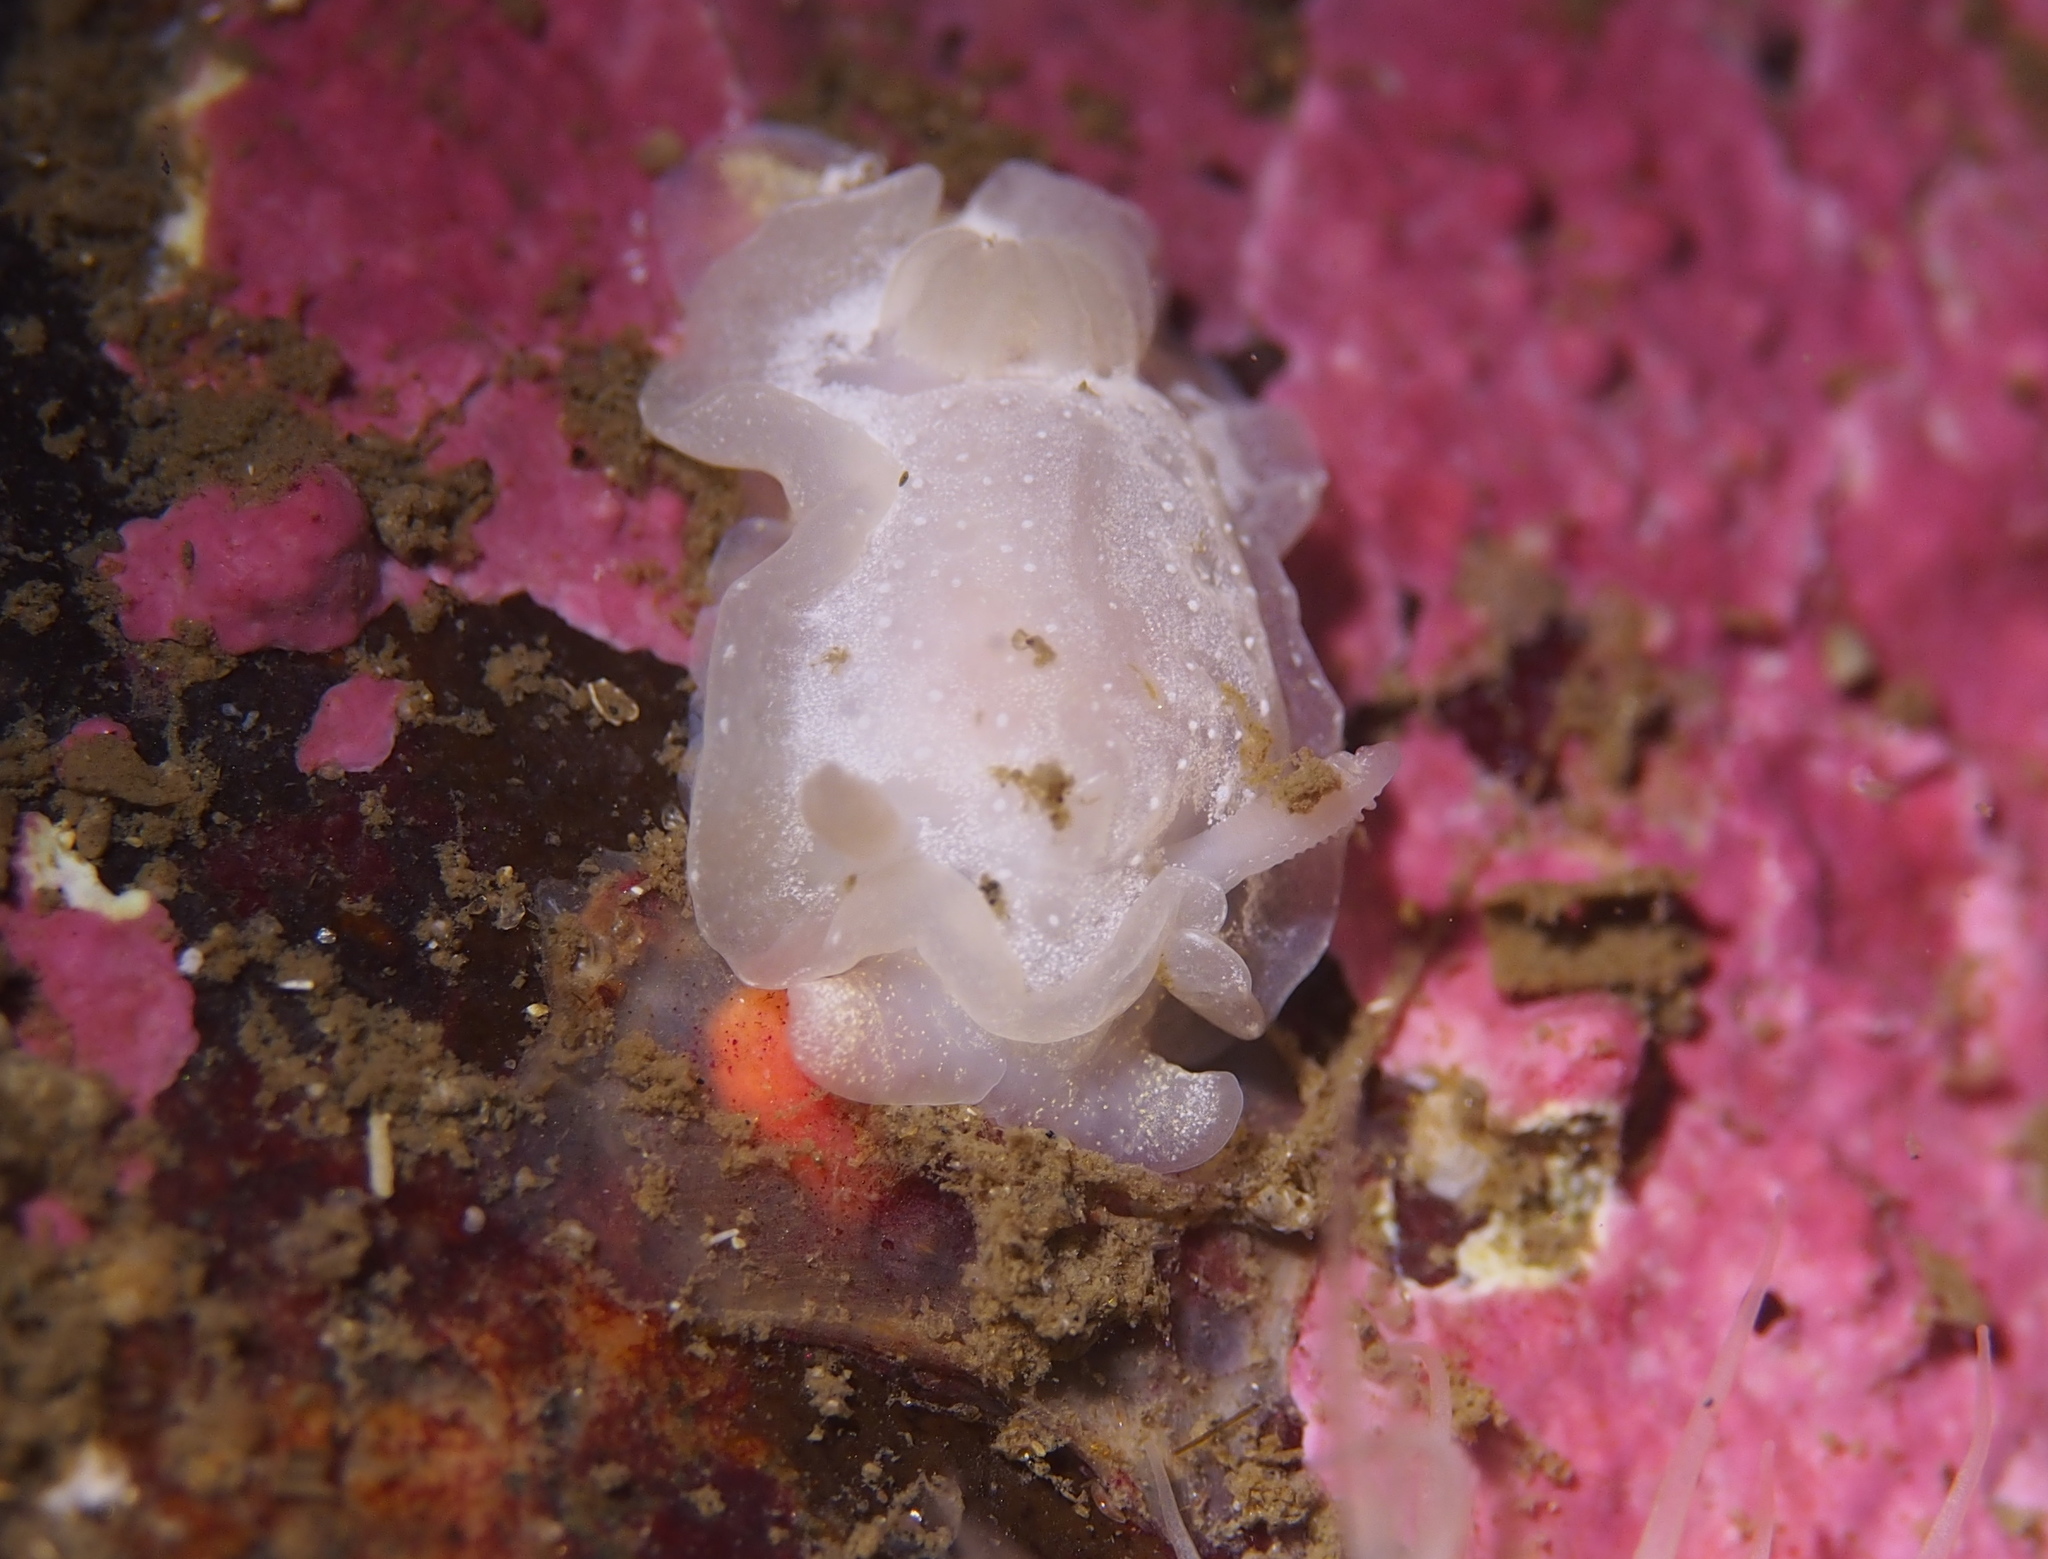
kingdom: Animalia
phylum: Mollusca
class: Gastropoda
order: Nudibranchia
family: Goniodorididae
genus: Okenia
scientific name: Okenia
